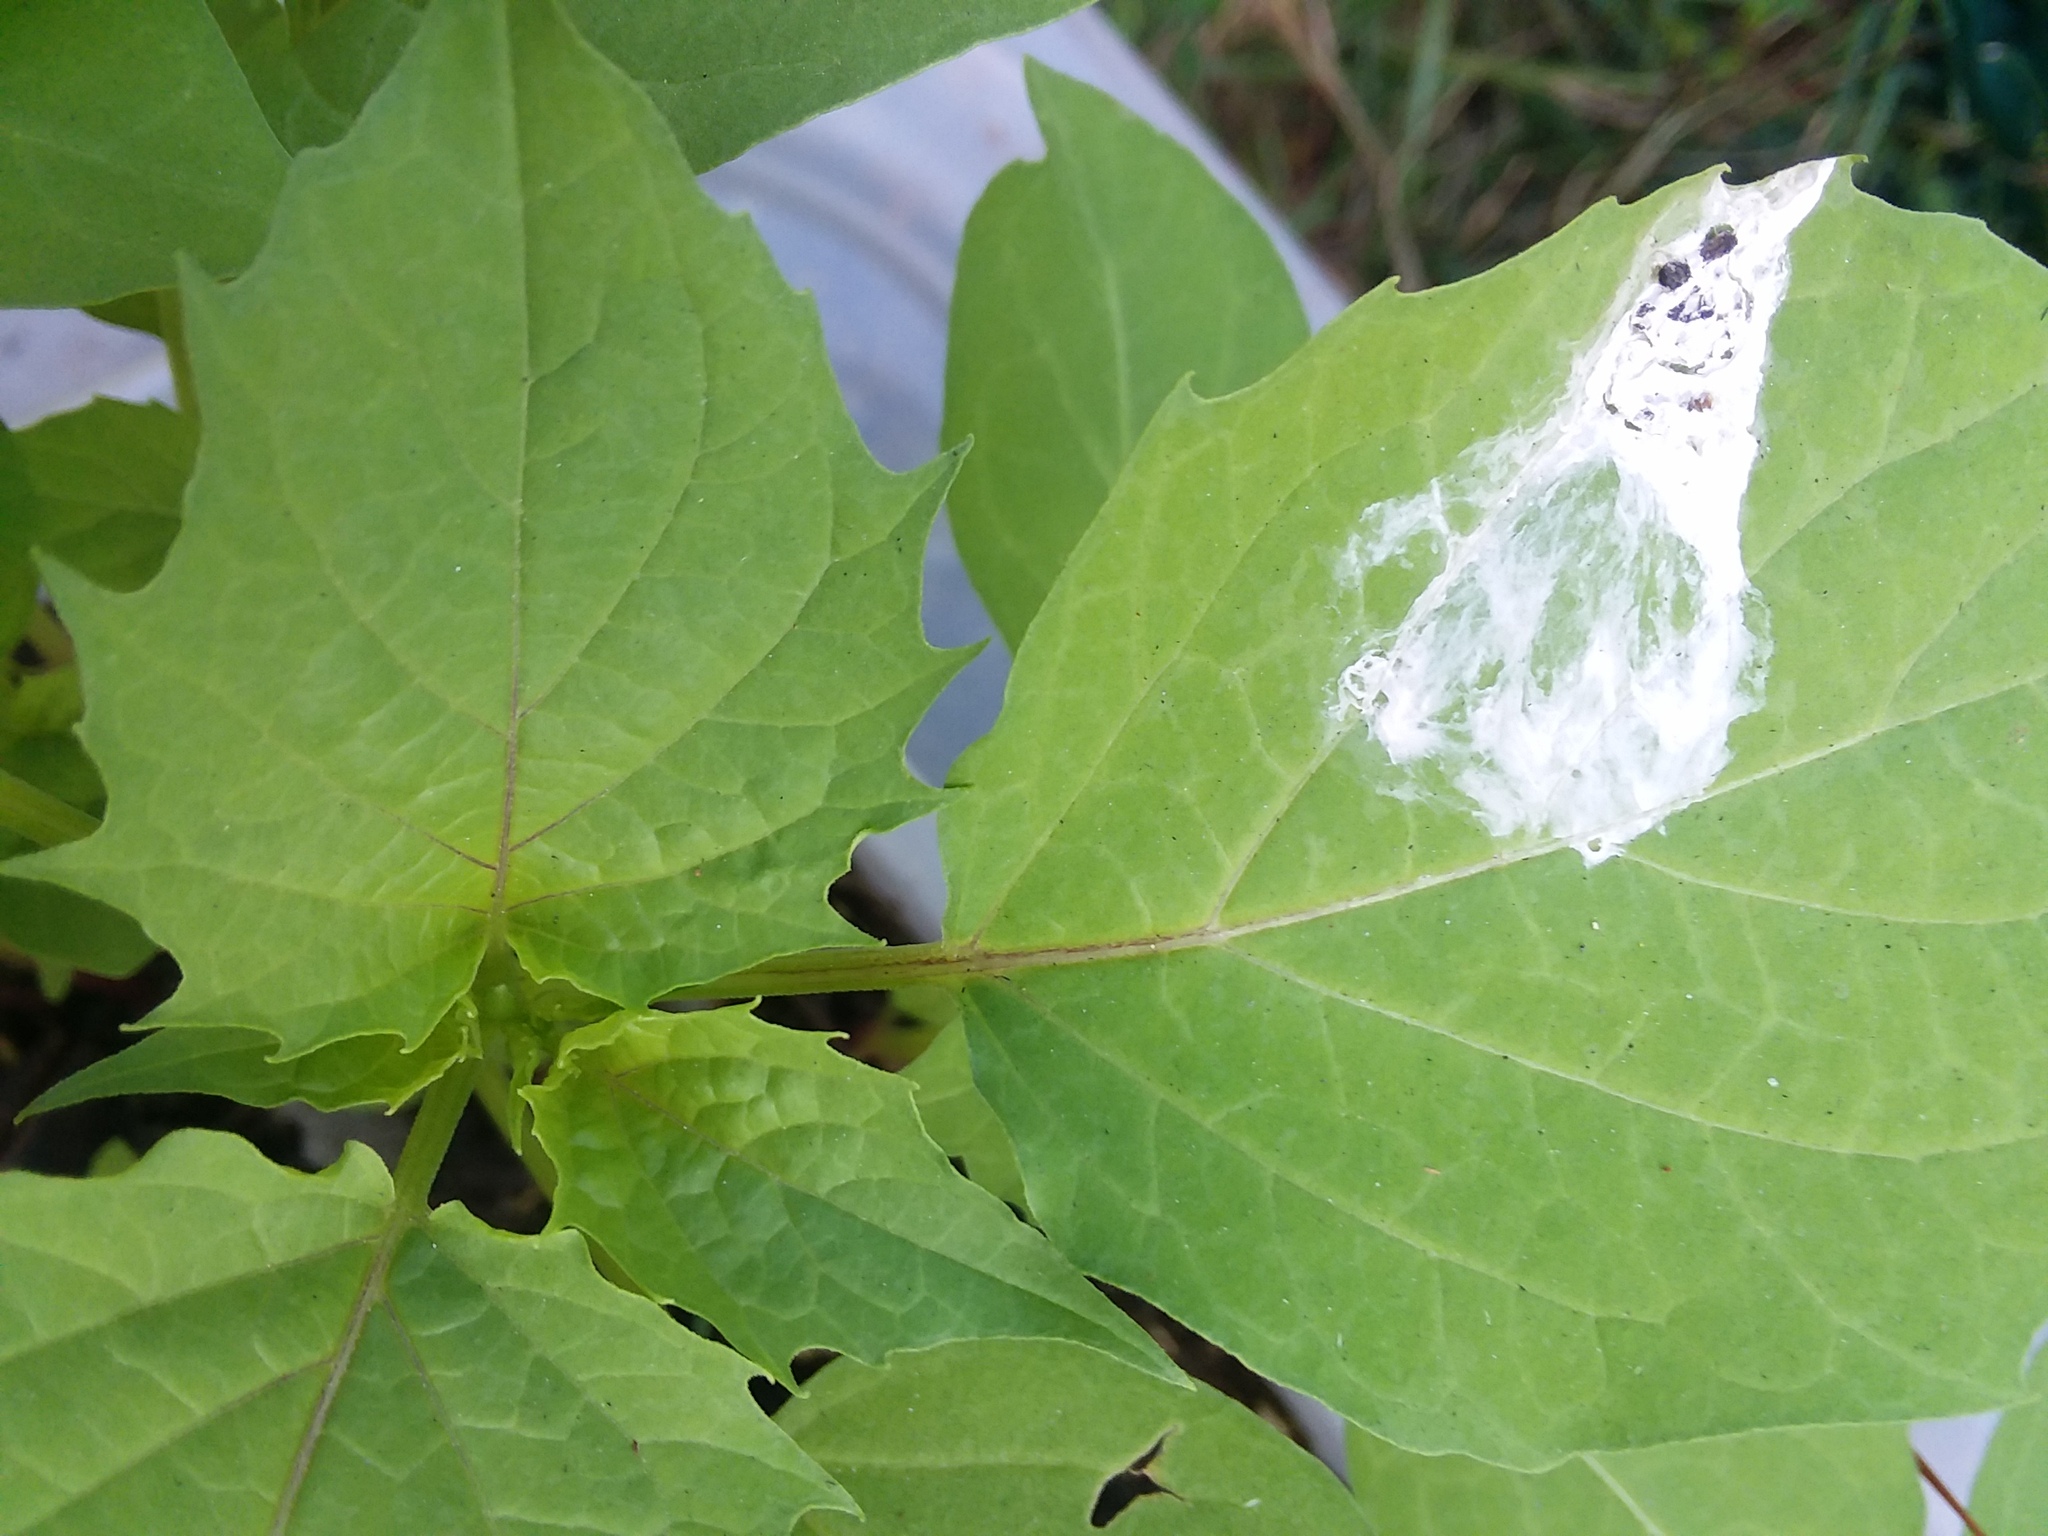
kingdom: Plantae
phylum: Tracheophyta
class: Magnoliopsida
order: Solanales
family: Solanaceae
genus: Physalis
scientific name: Physalis angulata
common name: Angular winter-cherry
